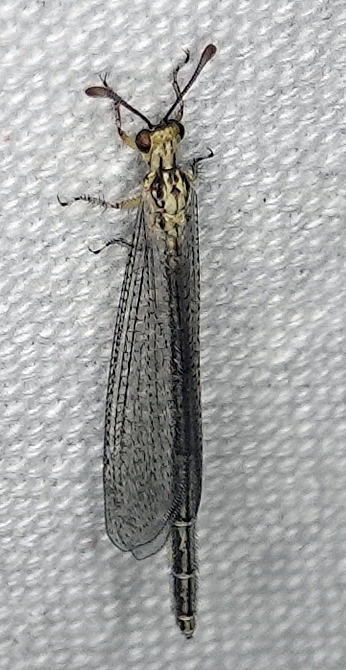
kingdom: Animalia
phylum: Arthropoda
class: Insecta
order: Neuroptera
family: Myrmeleontidae
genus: Brachynemurus
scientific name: Brachynemurus abdominalis
